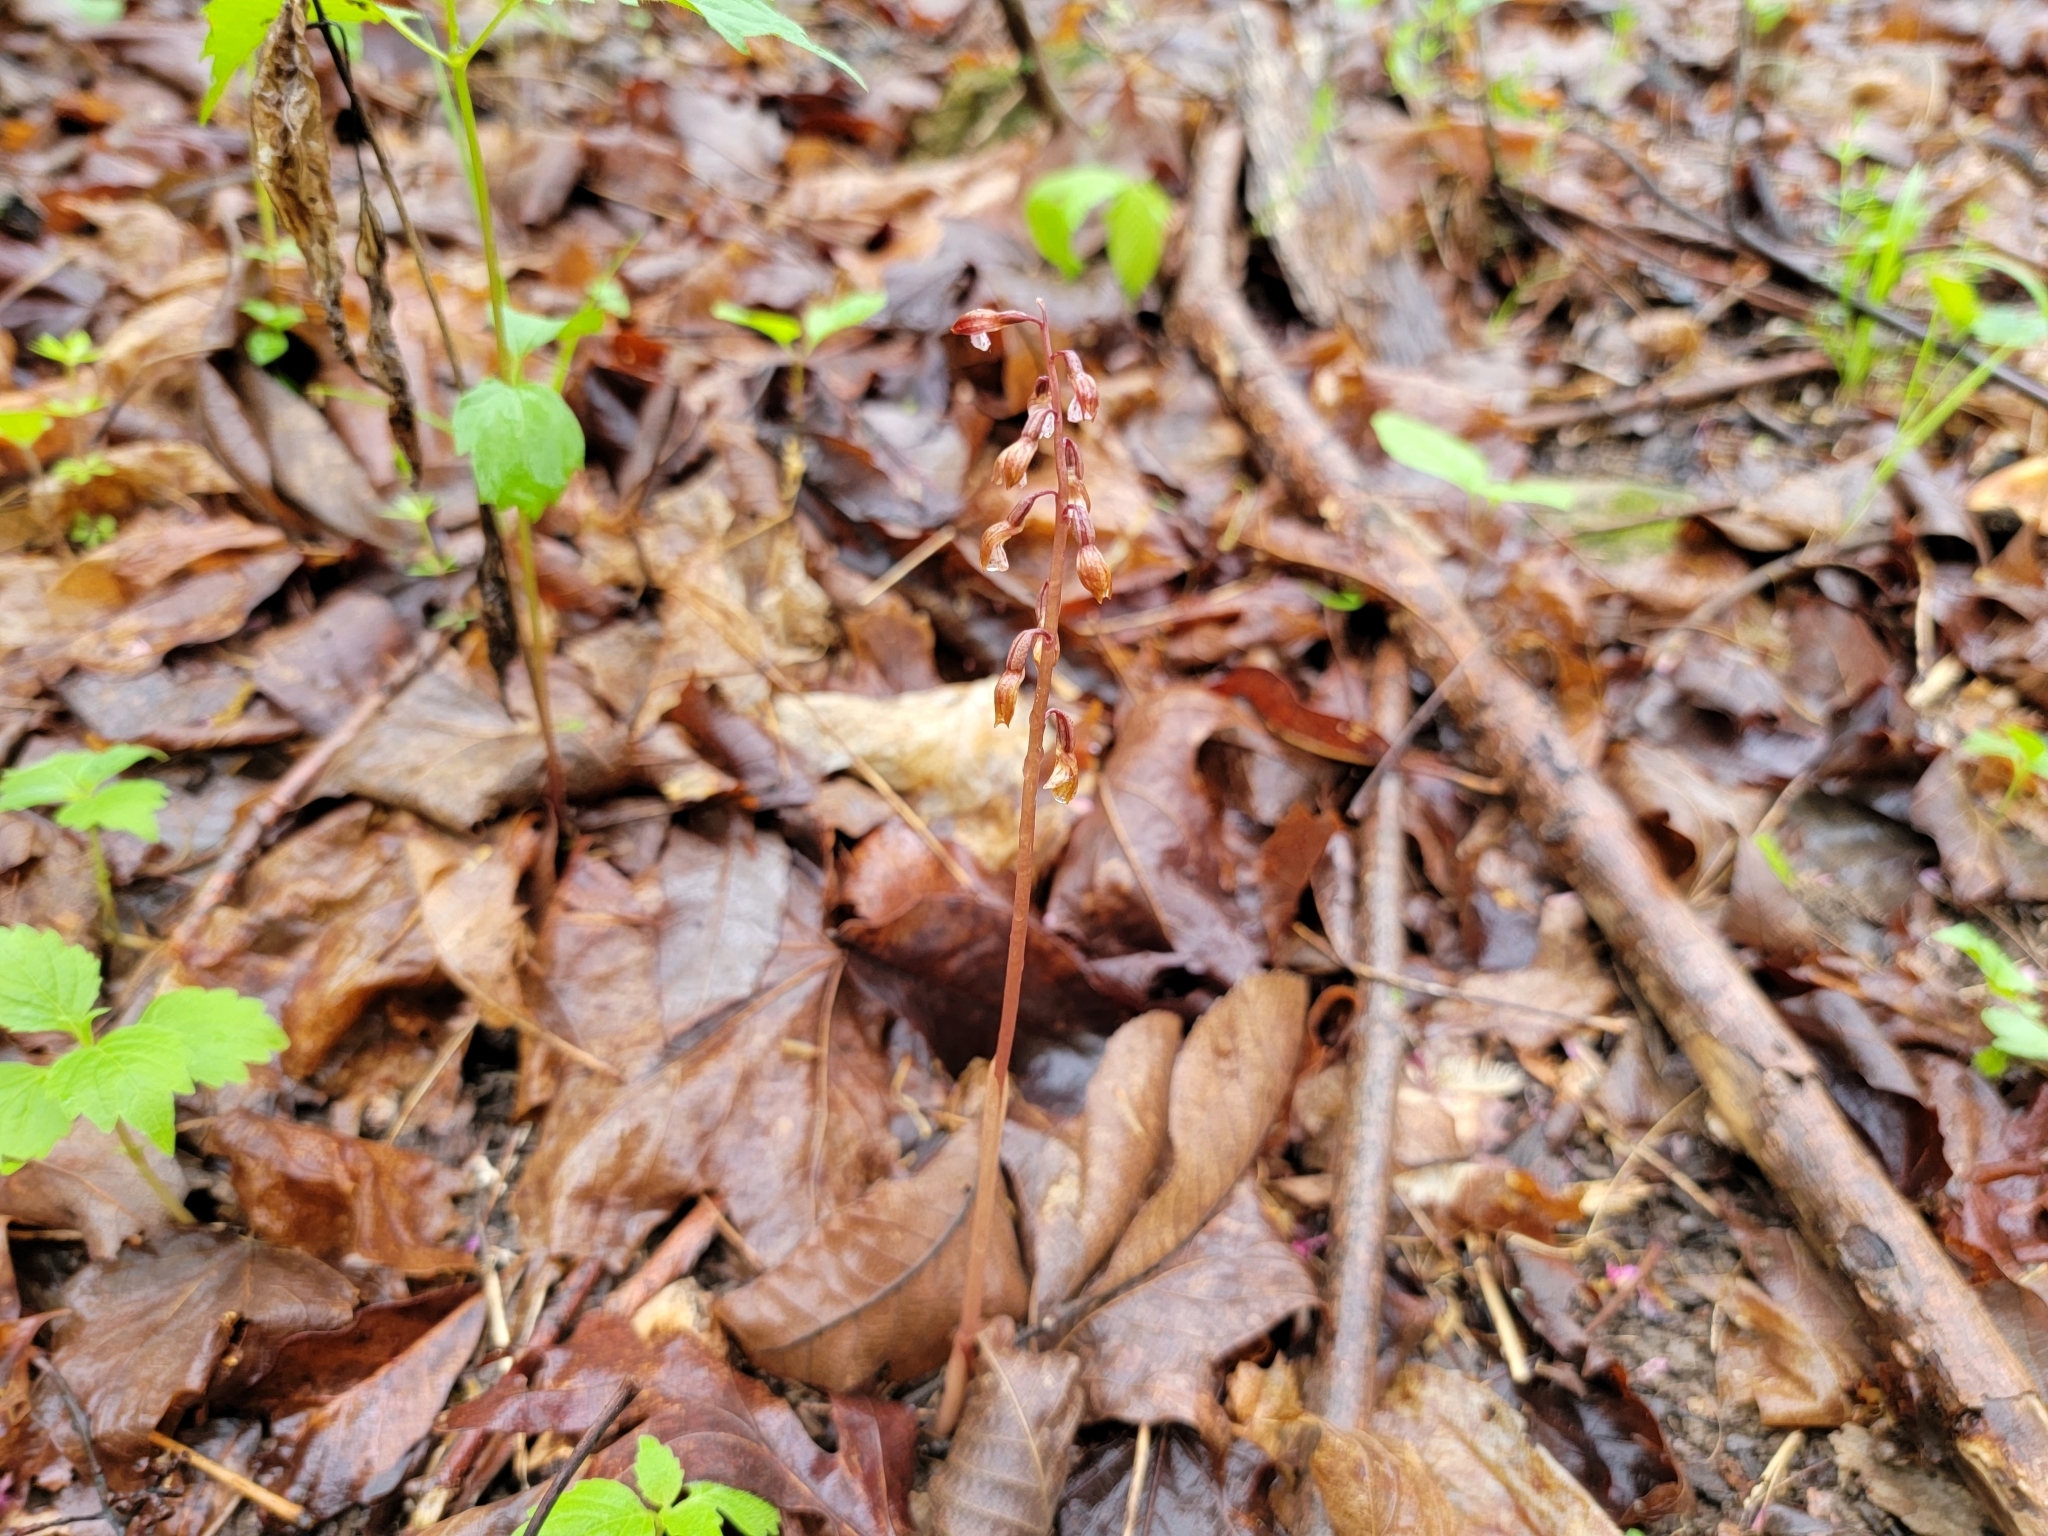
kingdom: Plantae
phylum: Tracheophyta
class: Liliopsida
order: Asparagales
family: Orchidaceae
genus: Corallorhiza
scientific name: Corallorhiza wisteriana
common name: Spring coralroot
